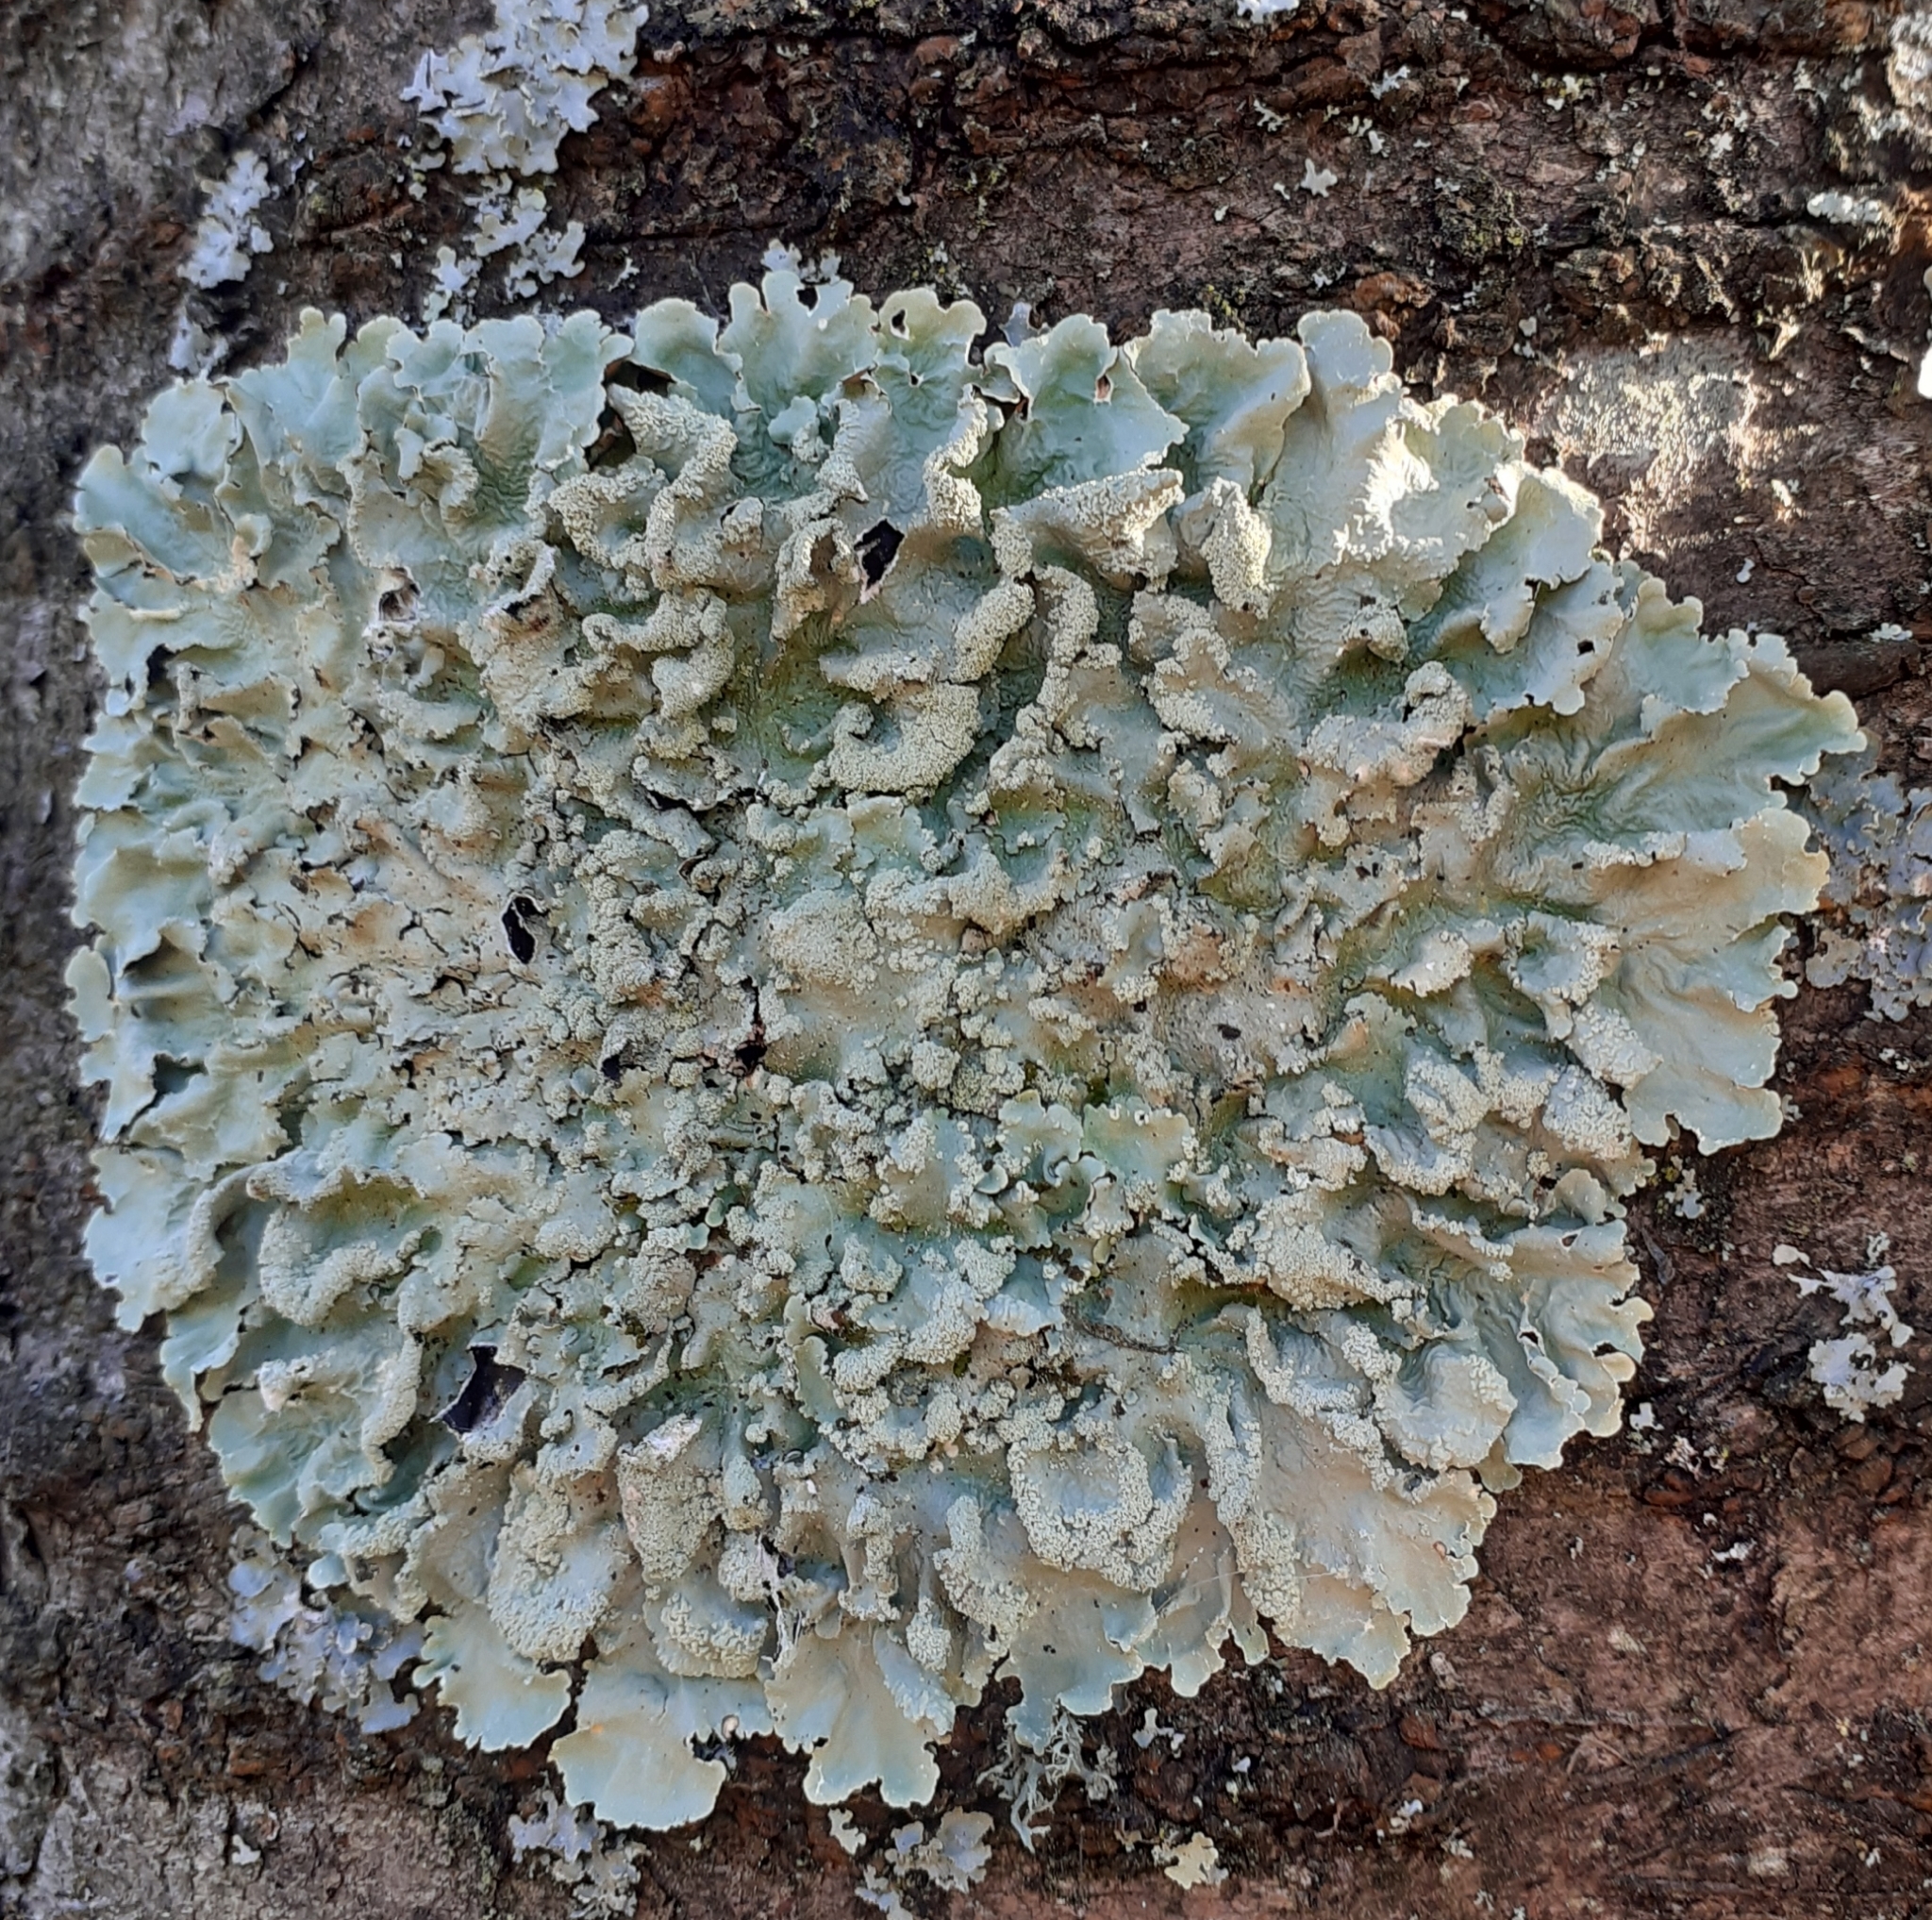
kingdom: Fungi
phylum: Ascomycota
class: Lecanoromycetes
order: Lecanorales
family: Parmeliaceae
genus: Flavoparmelia
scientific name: Flavoparmelia caperata
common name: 40-mile per hour lichen
